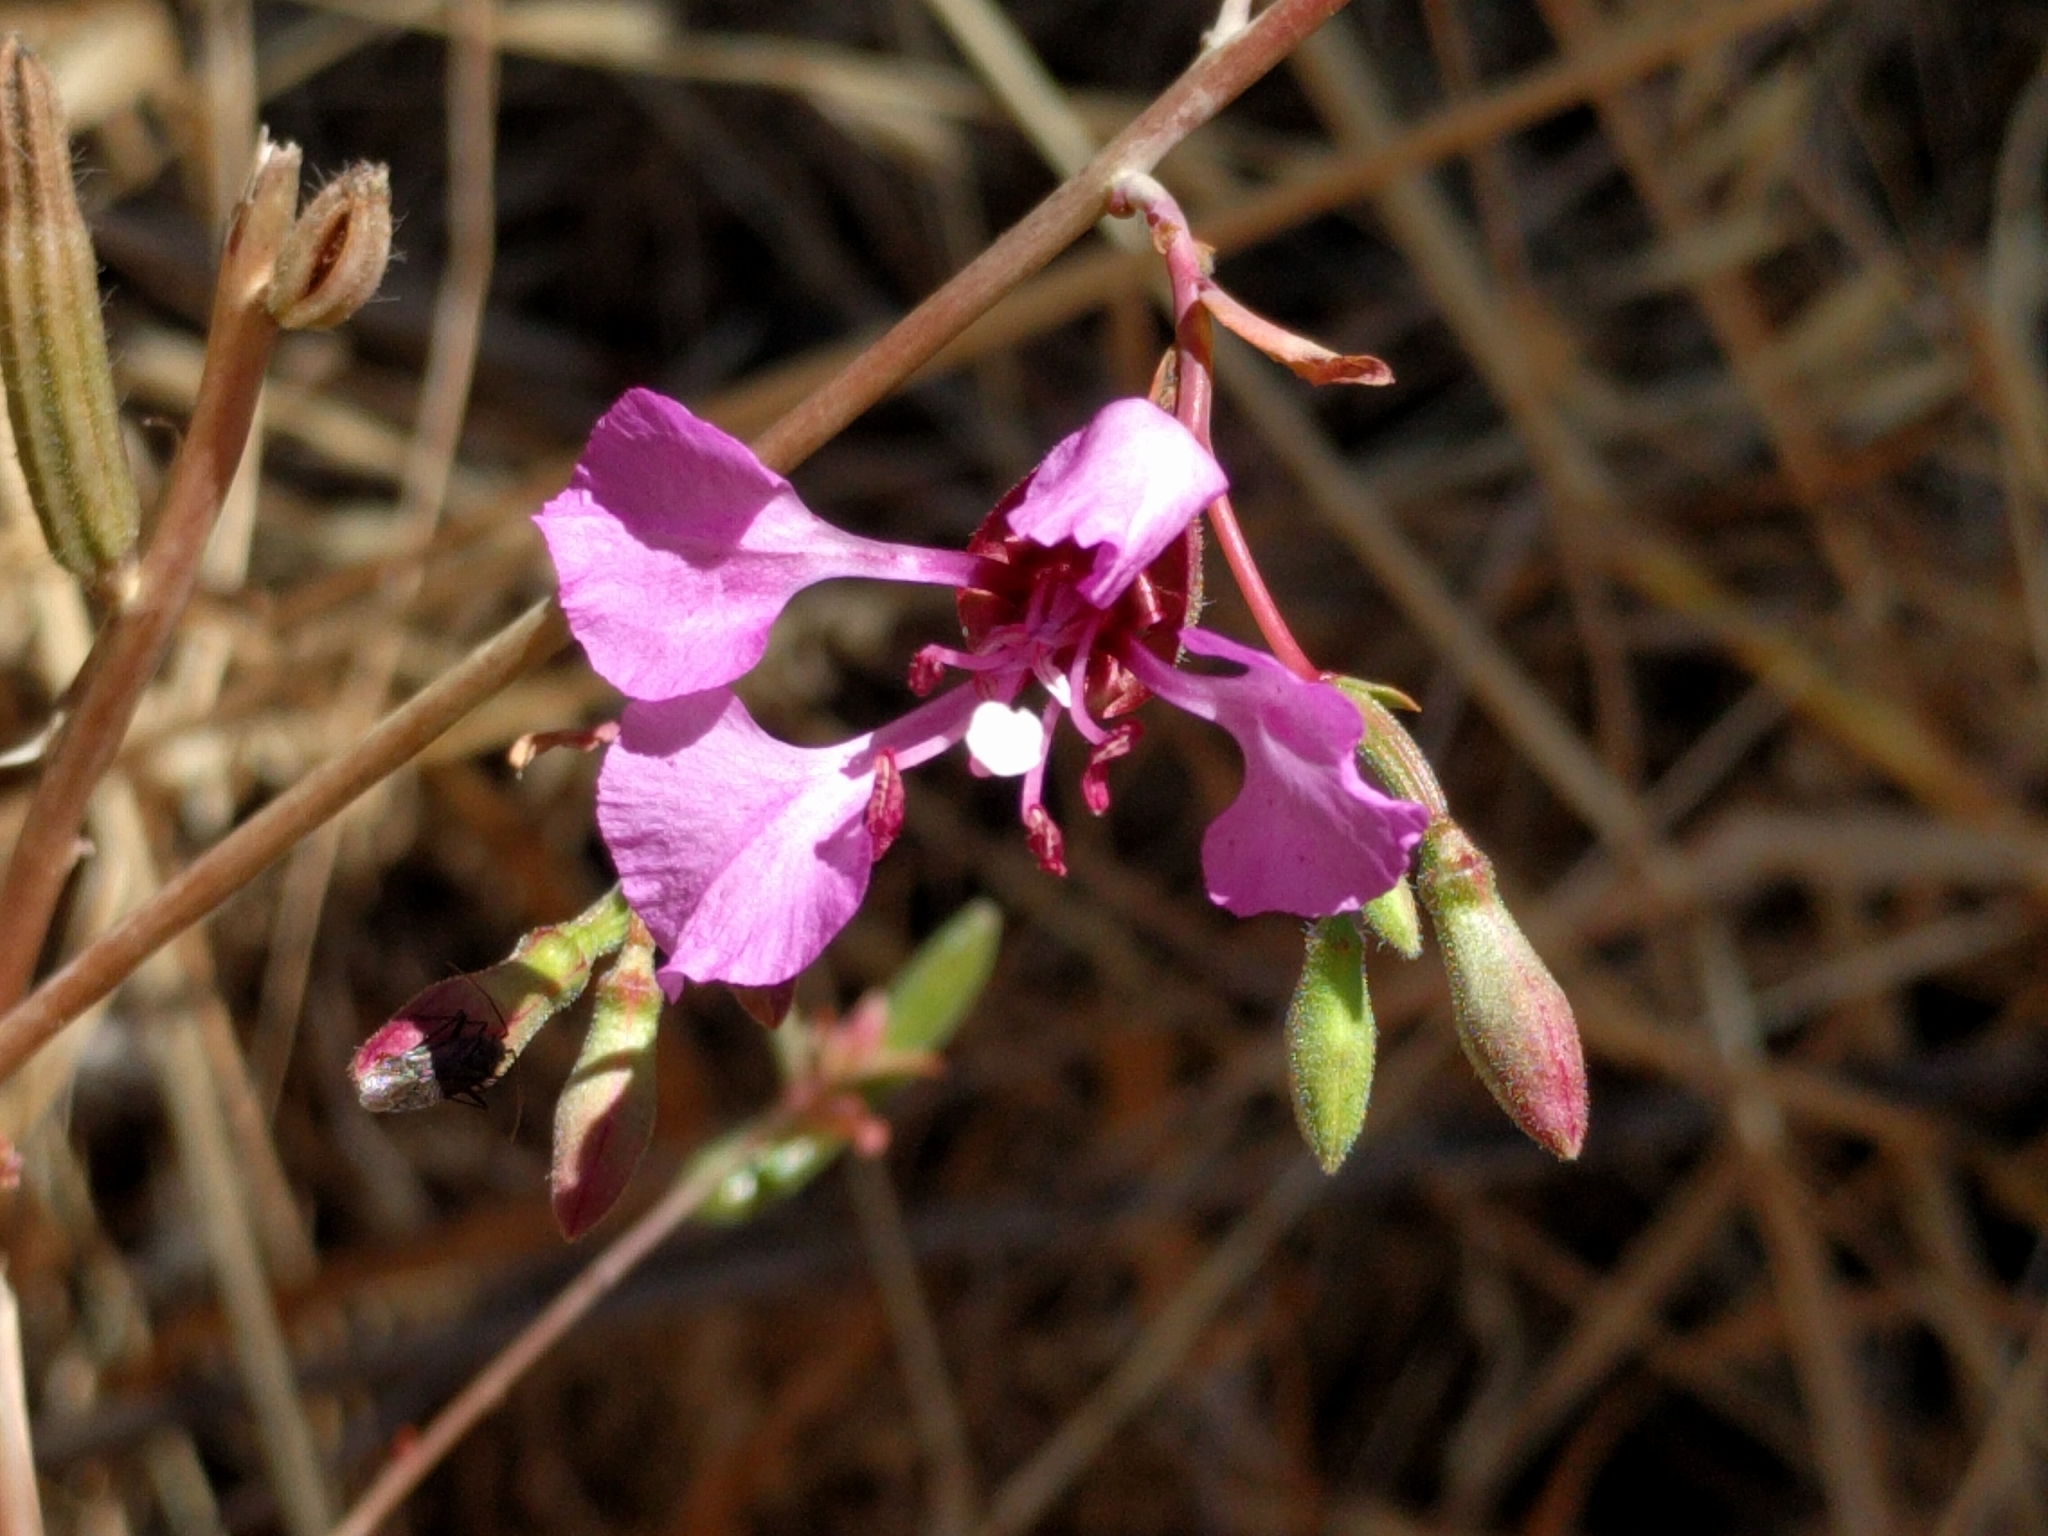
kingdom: Plantae
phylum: Tracheophyta
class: Magnoliopsida
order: Myrtales
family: Onagraceae
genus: Clarkia
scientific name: Clarkia unguiculata
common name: Clarkia
